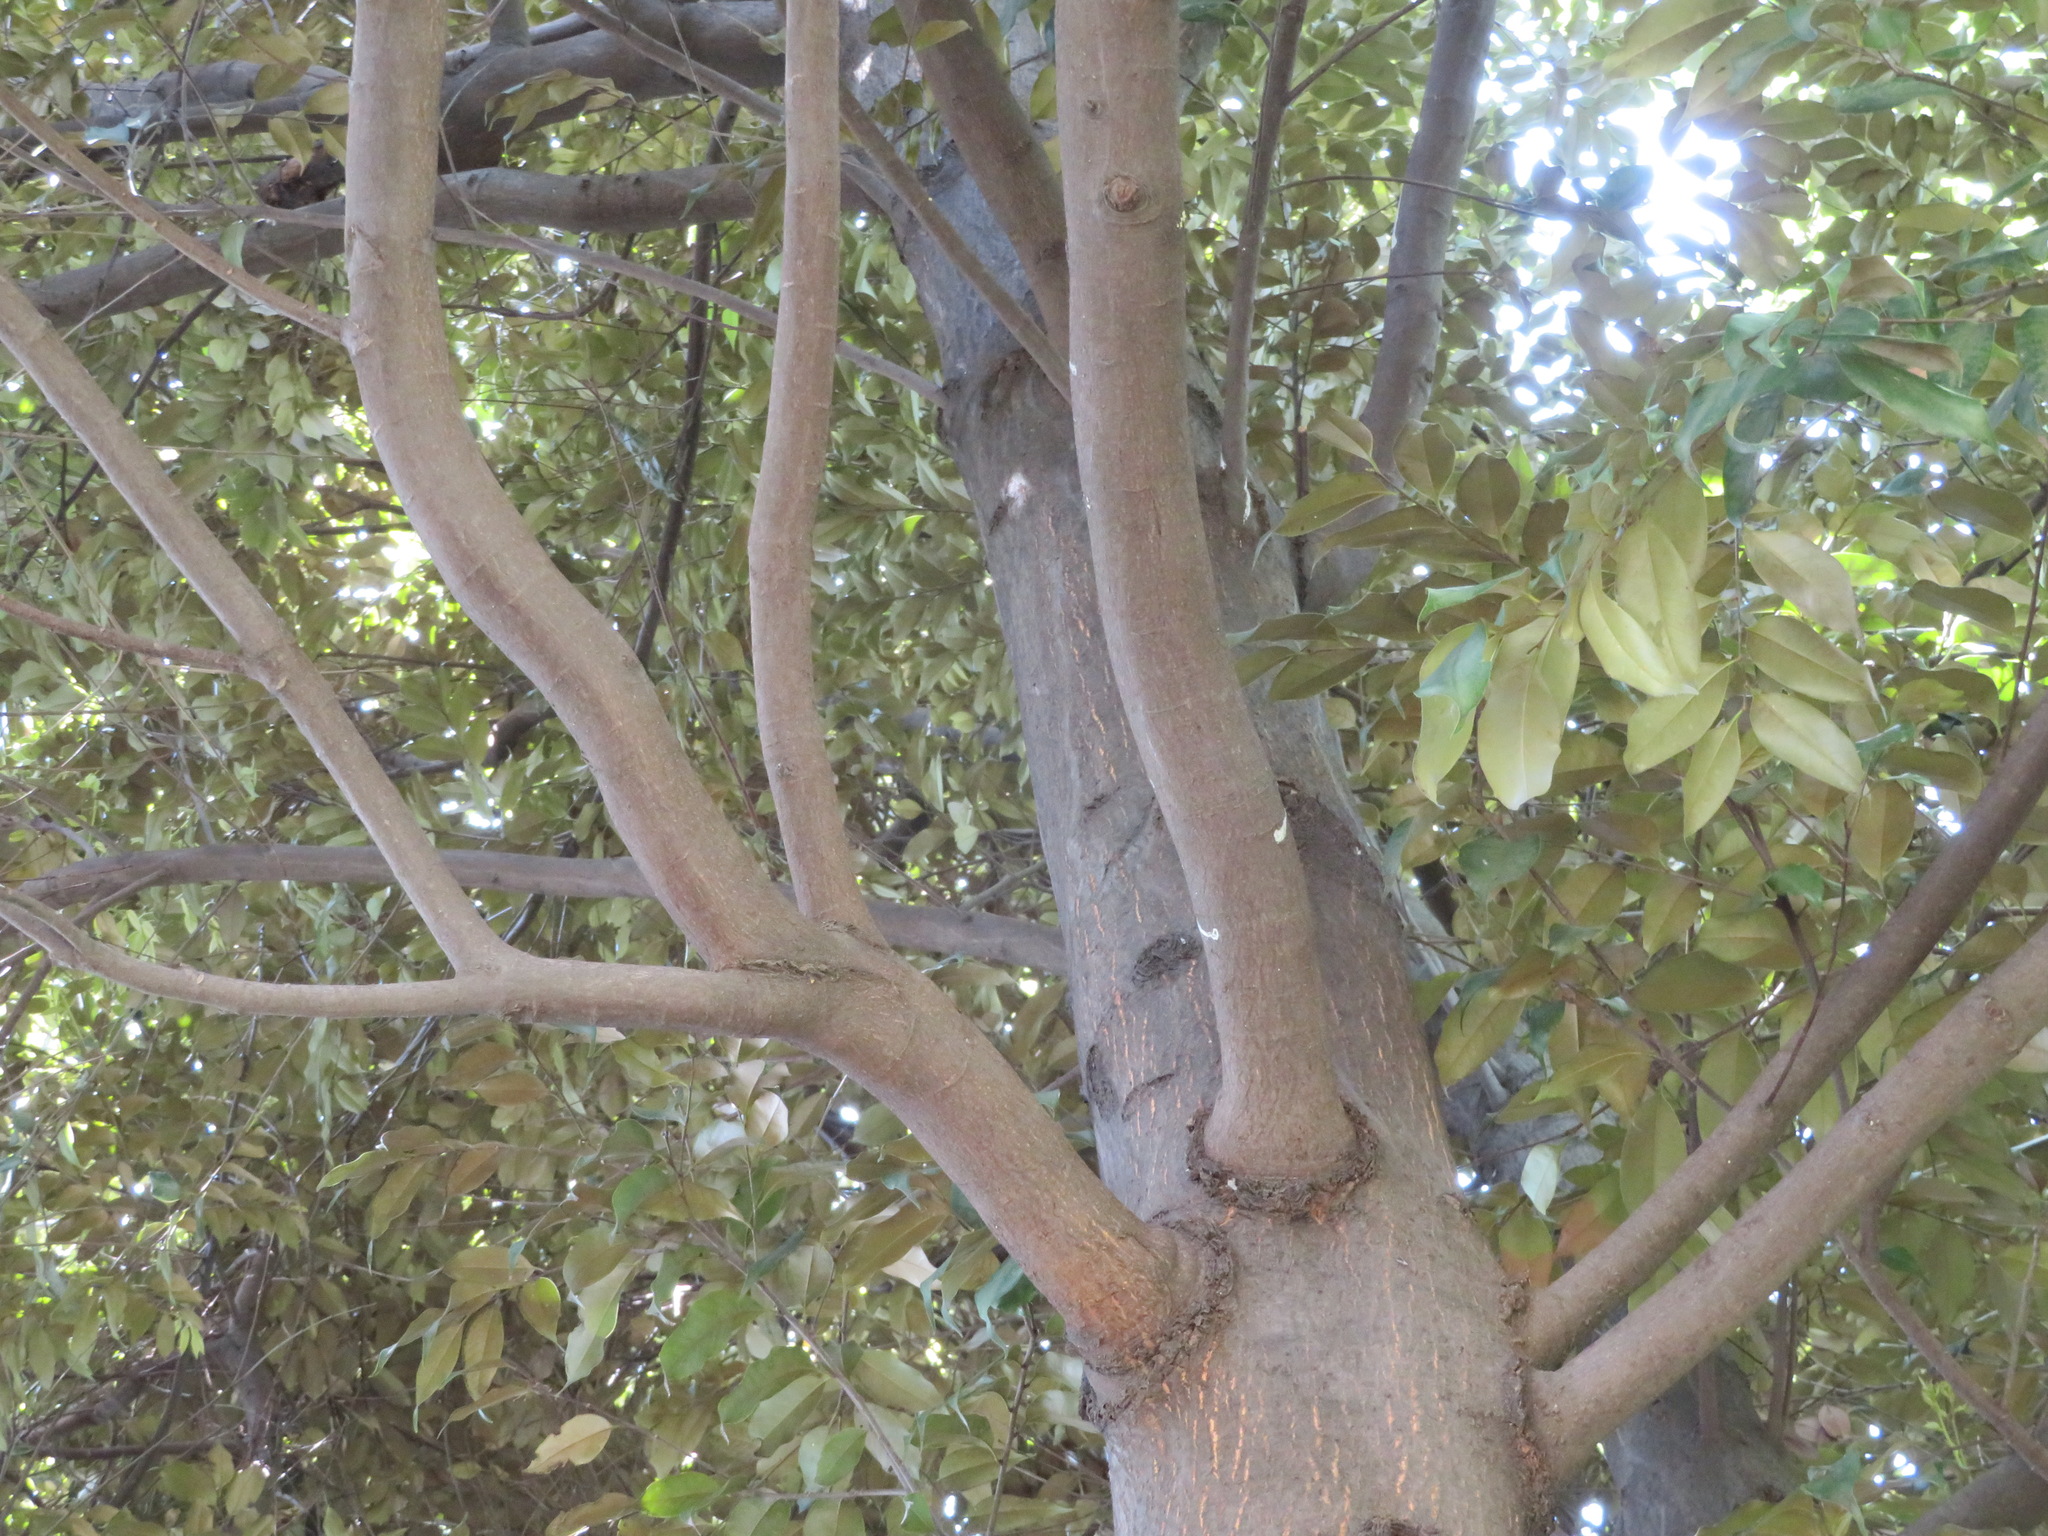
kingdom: Plantae
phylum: Tracheophyta
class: Magnoliopsida
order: Fagales
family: Fagaceae
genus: Castanopsis
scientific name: Castanopsis sieboldii
